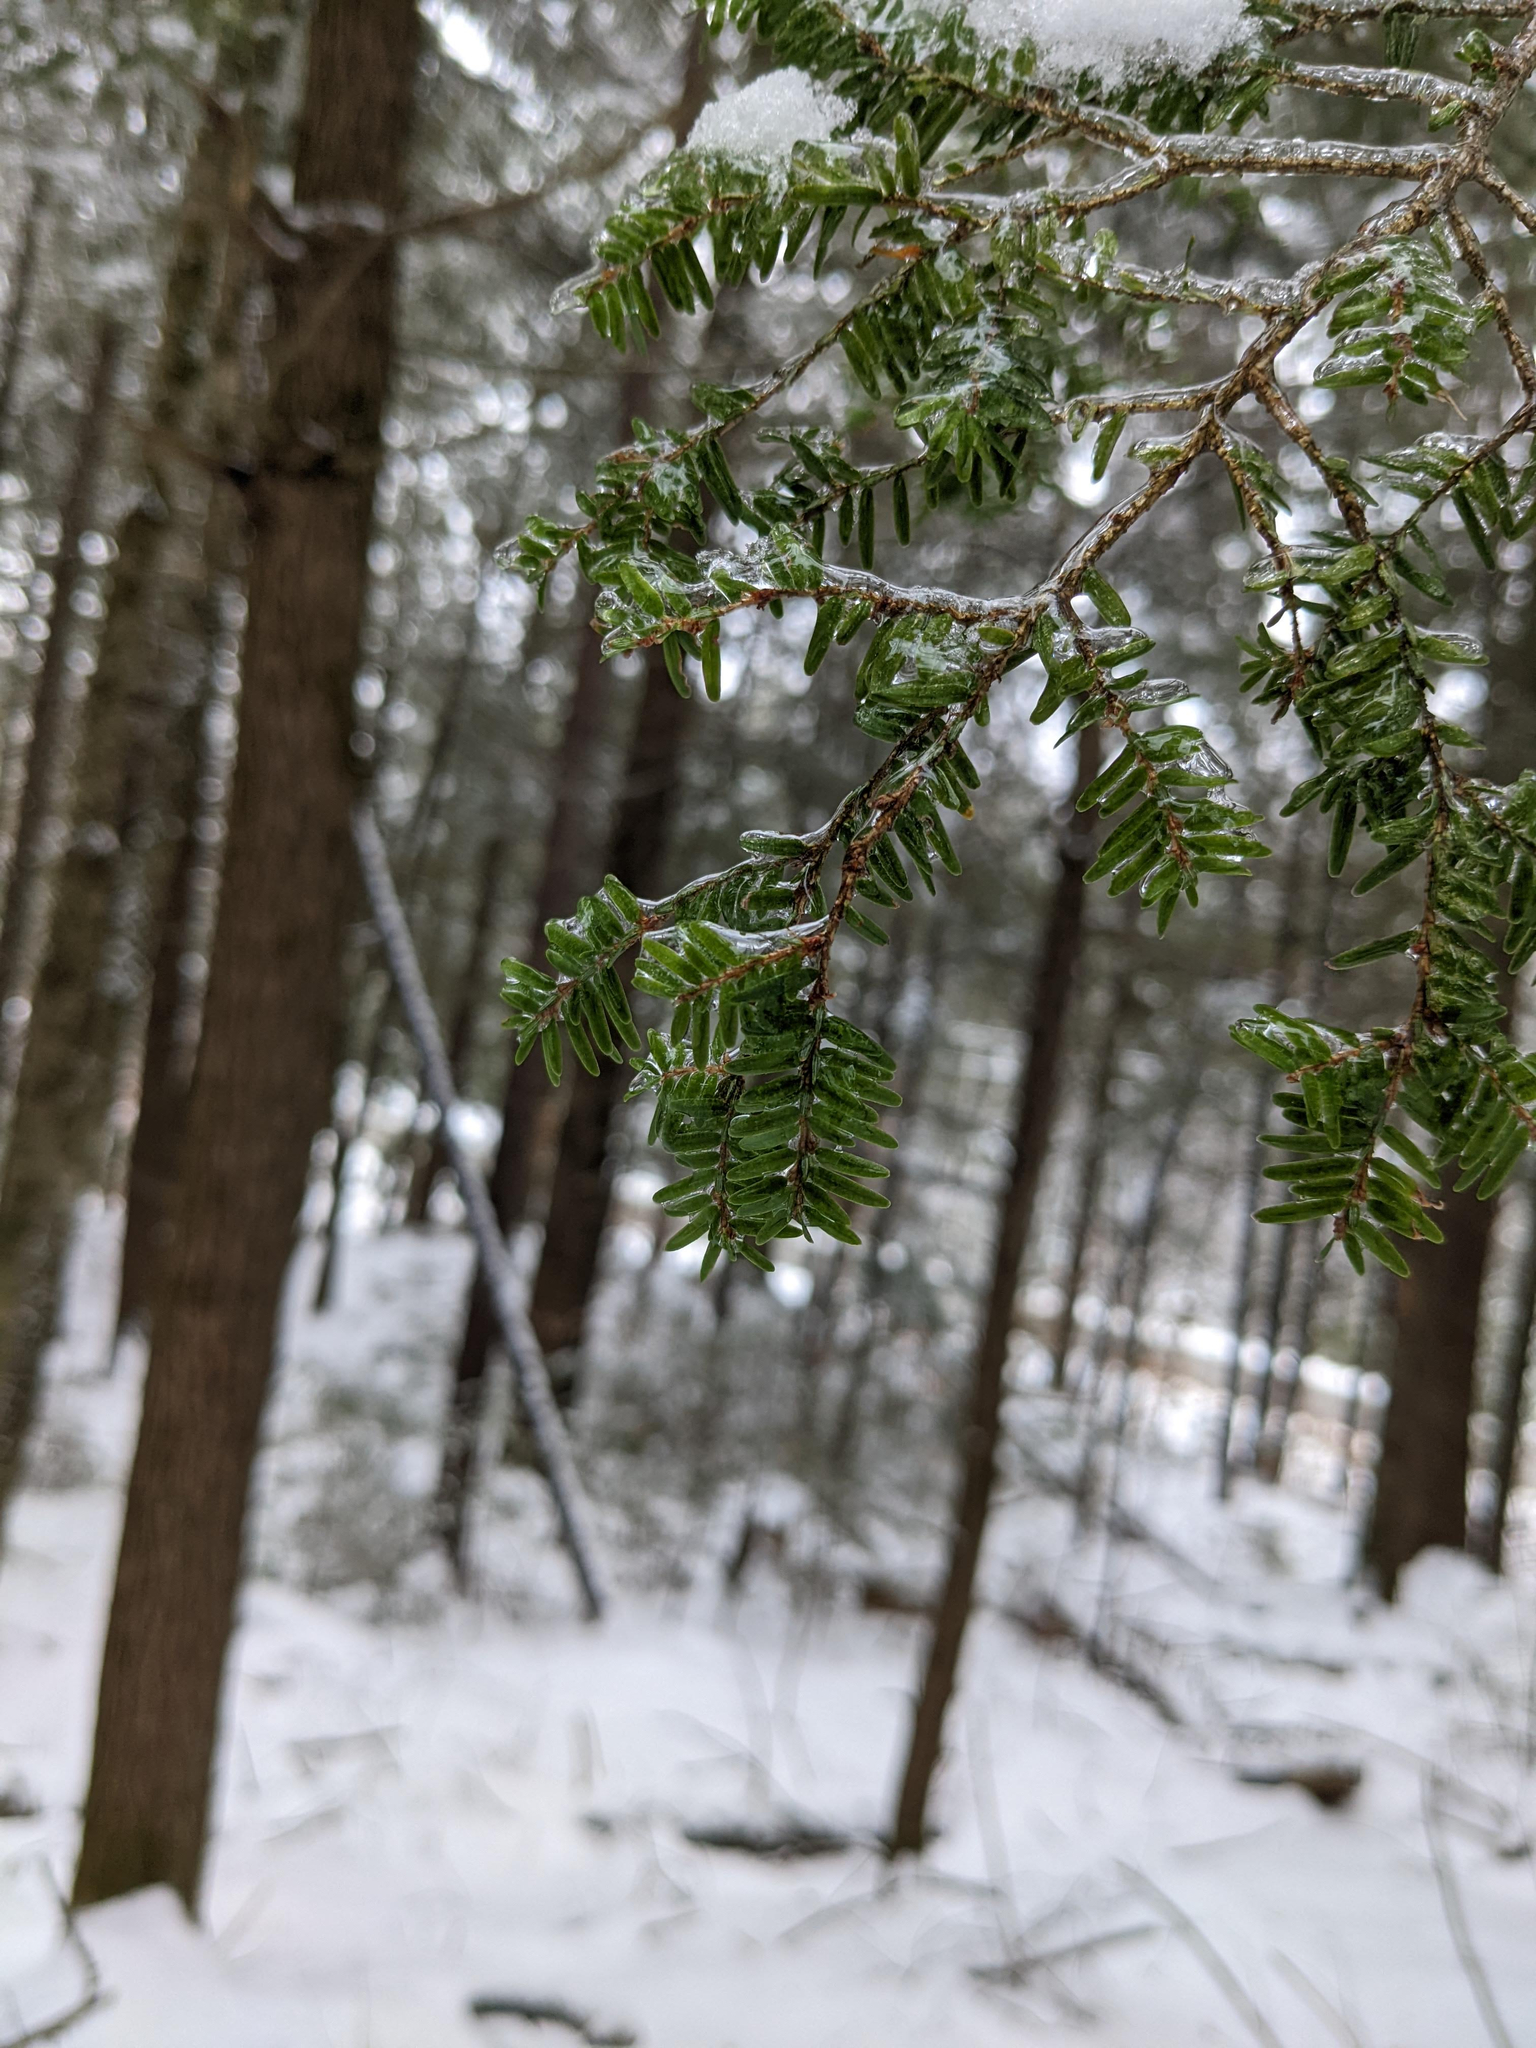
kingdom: Plantae
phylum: Tracheophyta
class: Pinopsida
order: Pinales
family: Pinaceae
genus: Tsuga
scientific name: Tsuga canadensis
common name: Eastern hemlock
